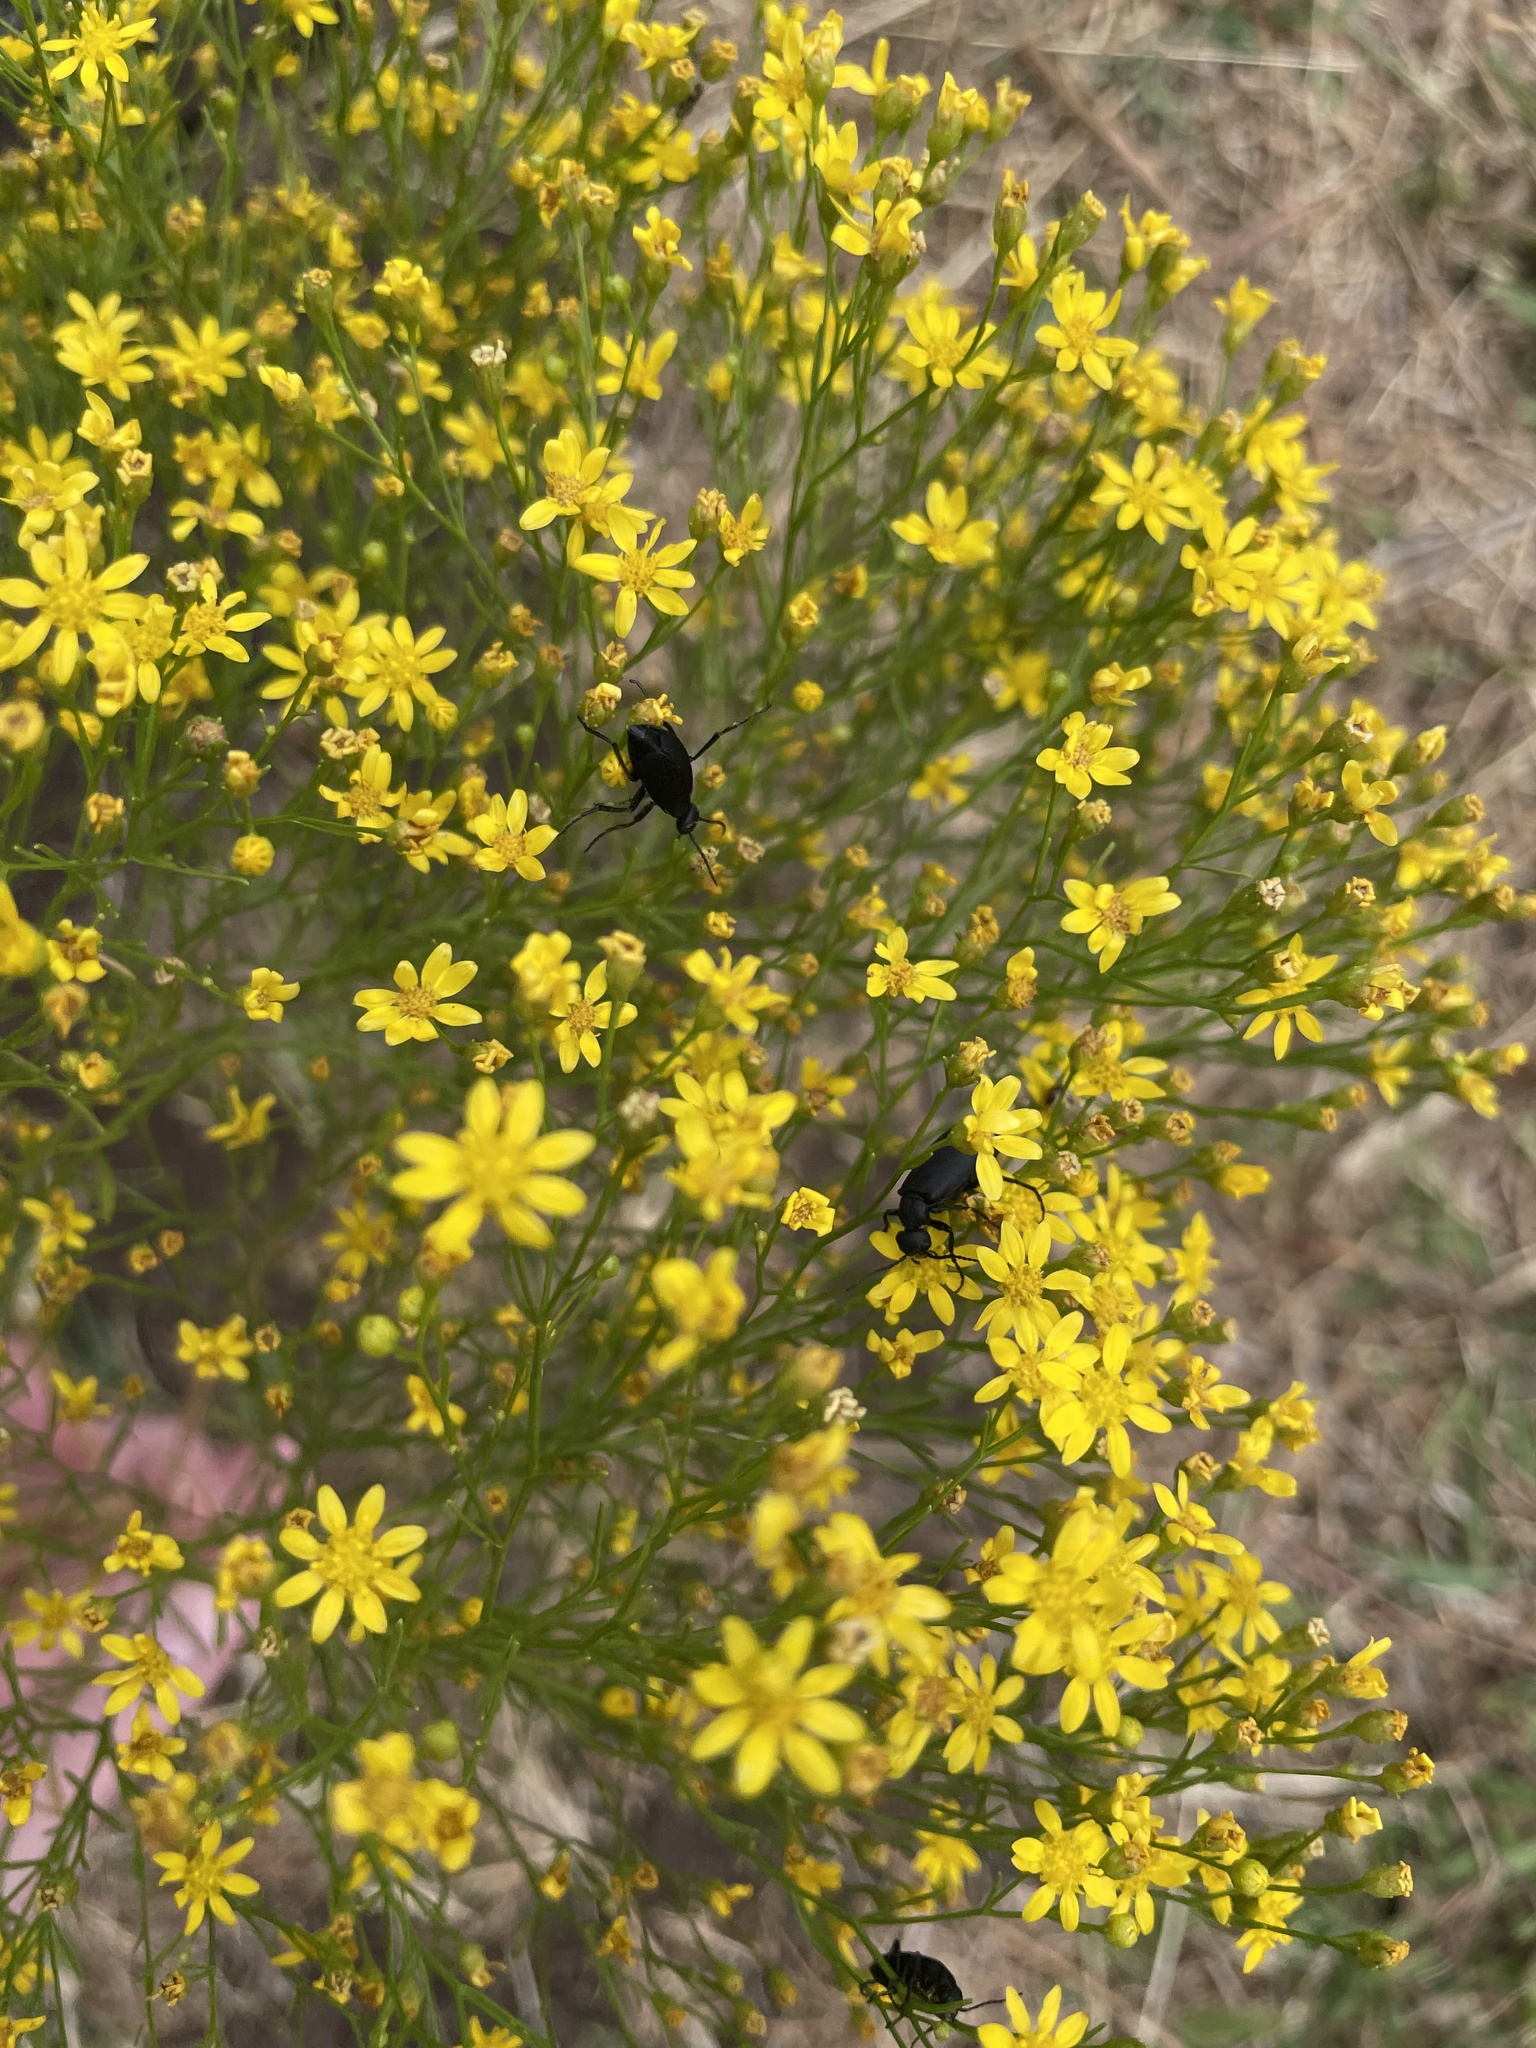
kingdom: Plantae
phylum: Tracheophyta
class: Magnoliopsida
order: Asterales
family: Asteraceae
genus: Amphiachyris
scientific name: Amphiachyris dracunculoides
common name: Broomweed
